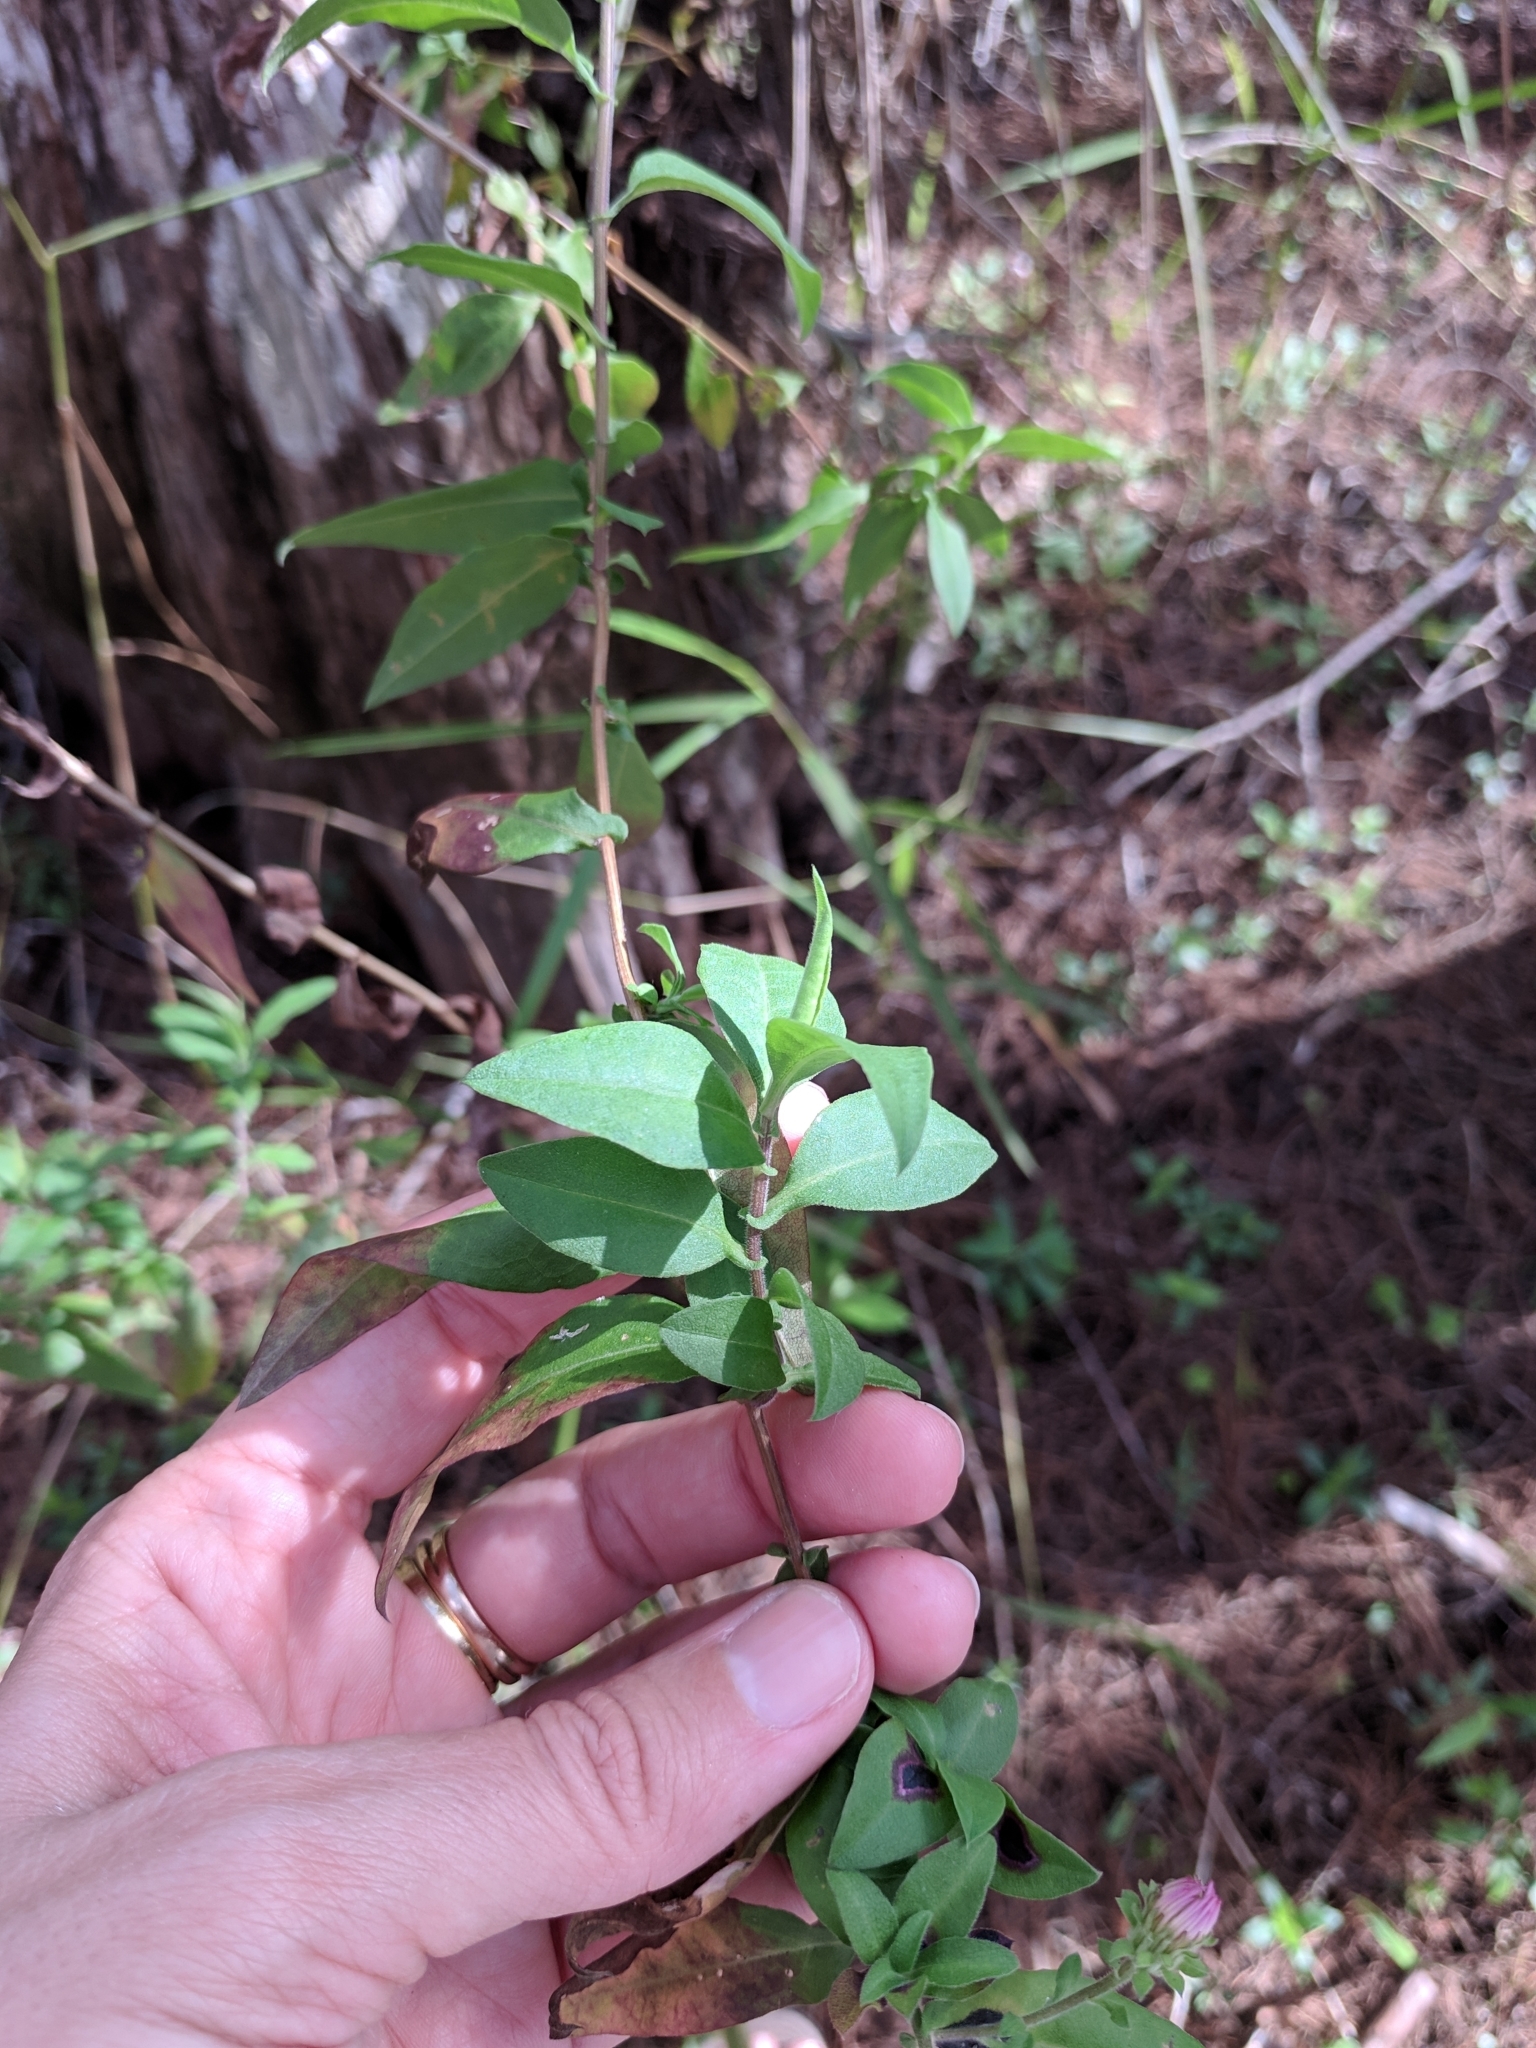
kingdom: Plantae
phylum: Tracheophyta
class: Magnoliopsida
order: Asterales
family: Asteraceae
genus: Ampelaster
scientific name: Ampelaster carolinianus
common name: Climbing aster
